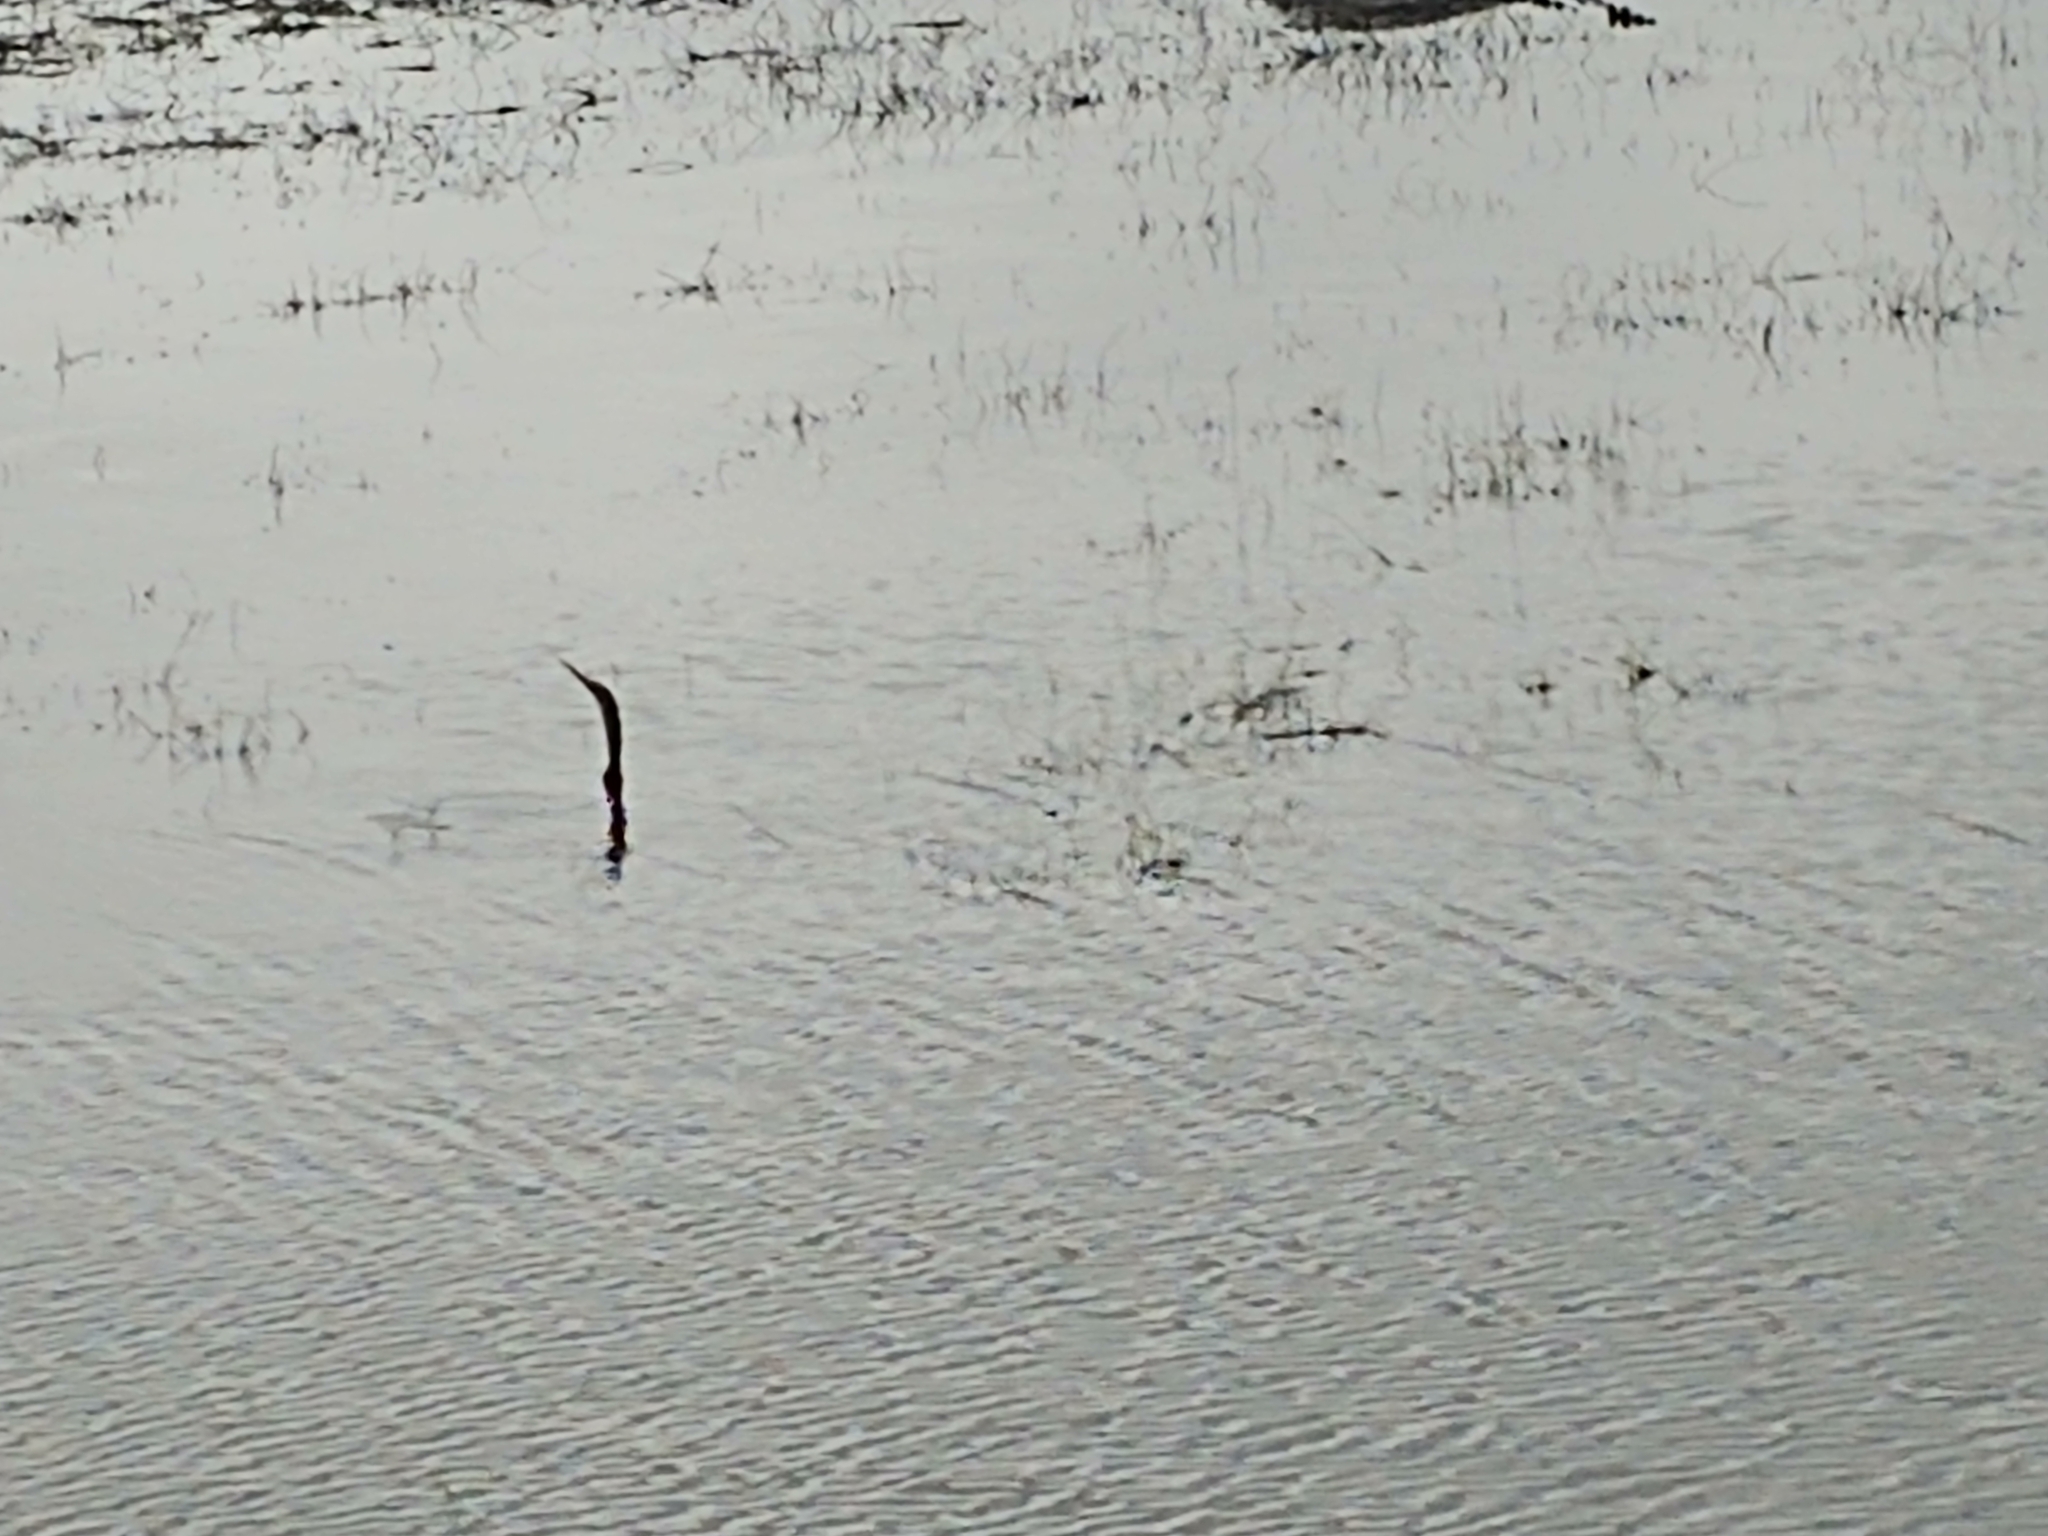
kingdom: Animalia
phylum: Chordata
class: Aves
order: Suliformes
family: Anhingidae
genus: Anhinga
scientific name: Anhinga anhinga
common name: Anhinga
